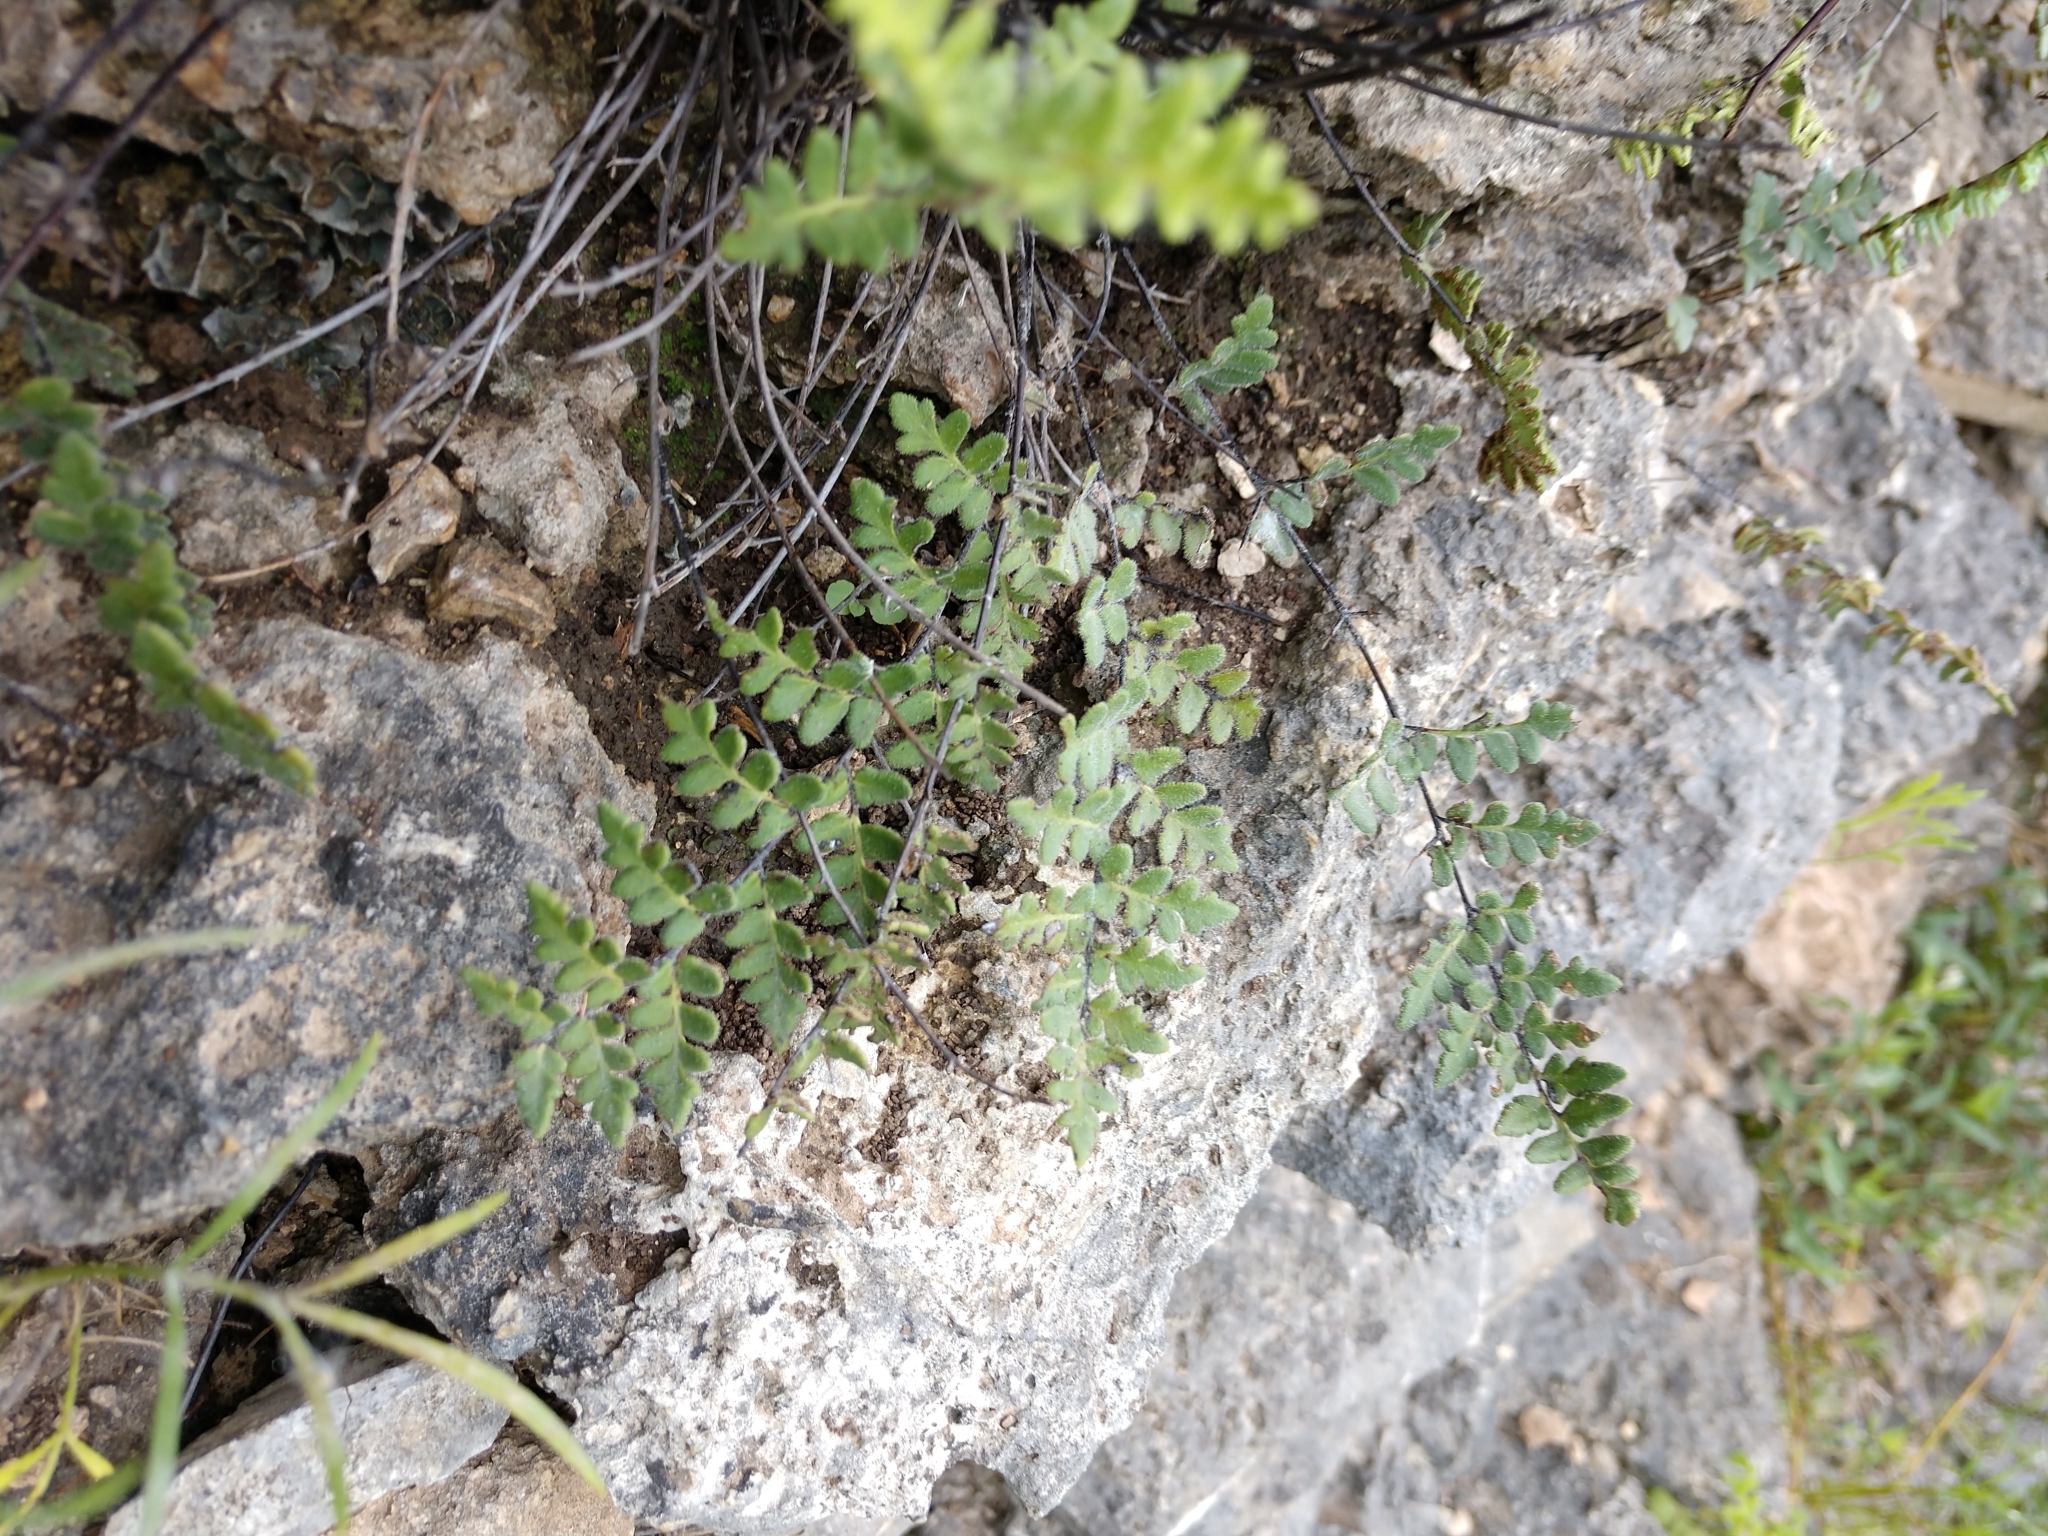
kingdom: Plantae
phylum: Tracheophyta
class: Polypodiopsida
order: Polypodiales
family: Pteridaceae
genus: Myriopteris
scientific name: Myriopteris scabra
